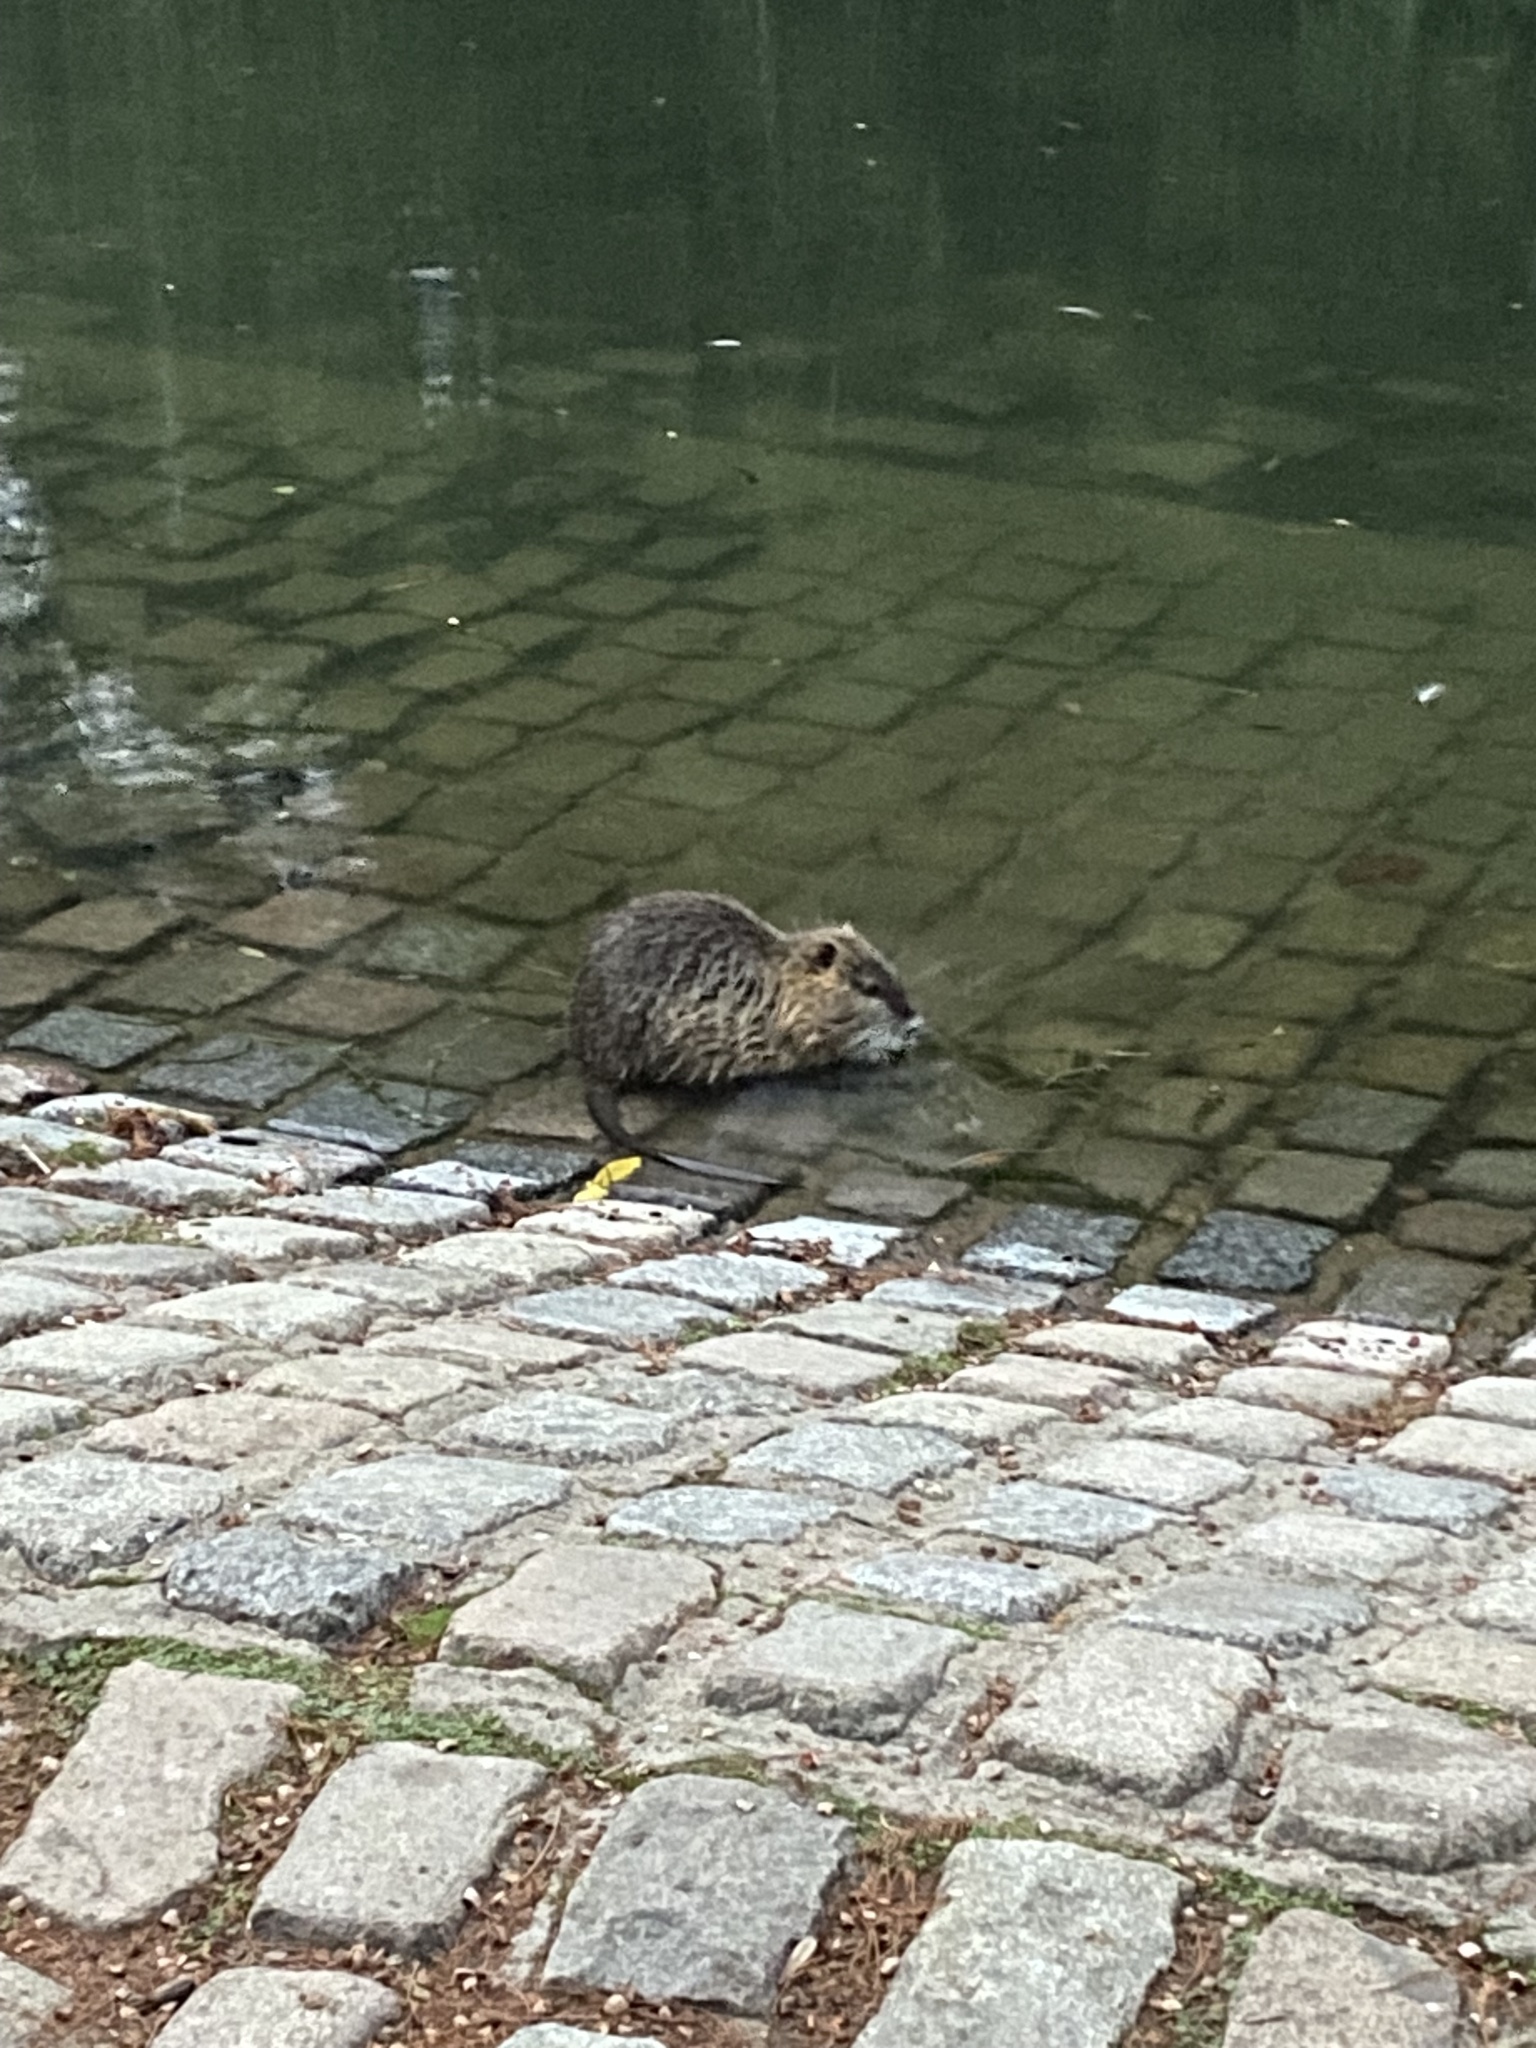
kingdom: Animalia
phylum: Chordata
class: Mammalia
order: Rodentia
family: Myocastoridae
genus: Myocastor
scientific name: Myocastor coypus
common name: Coypu
